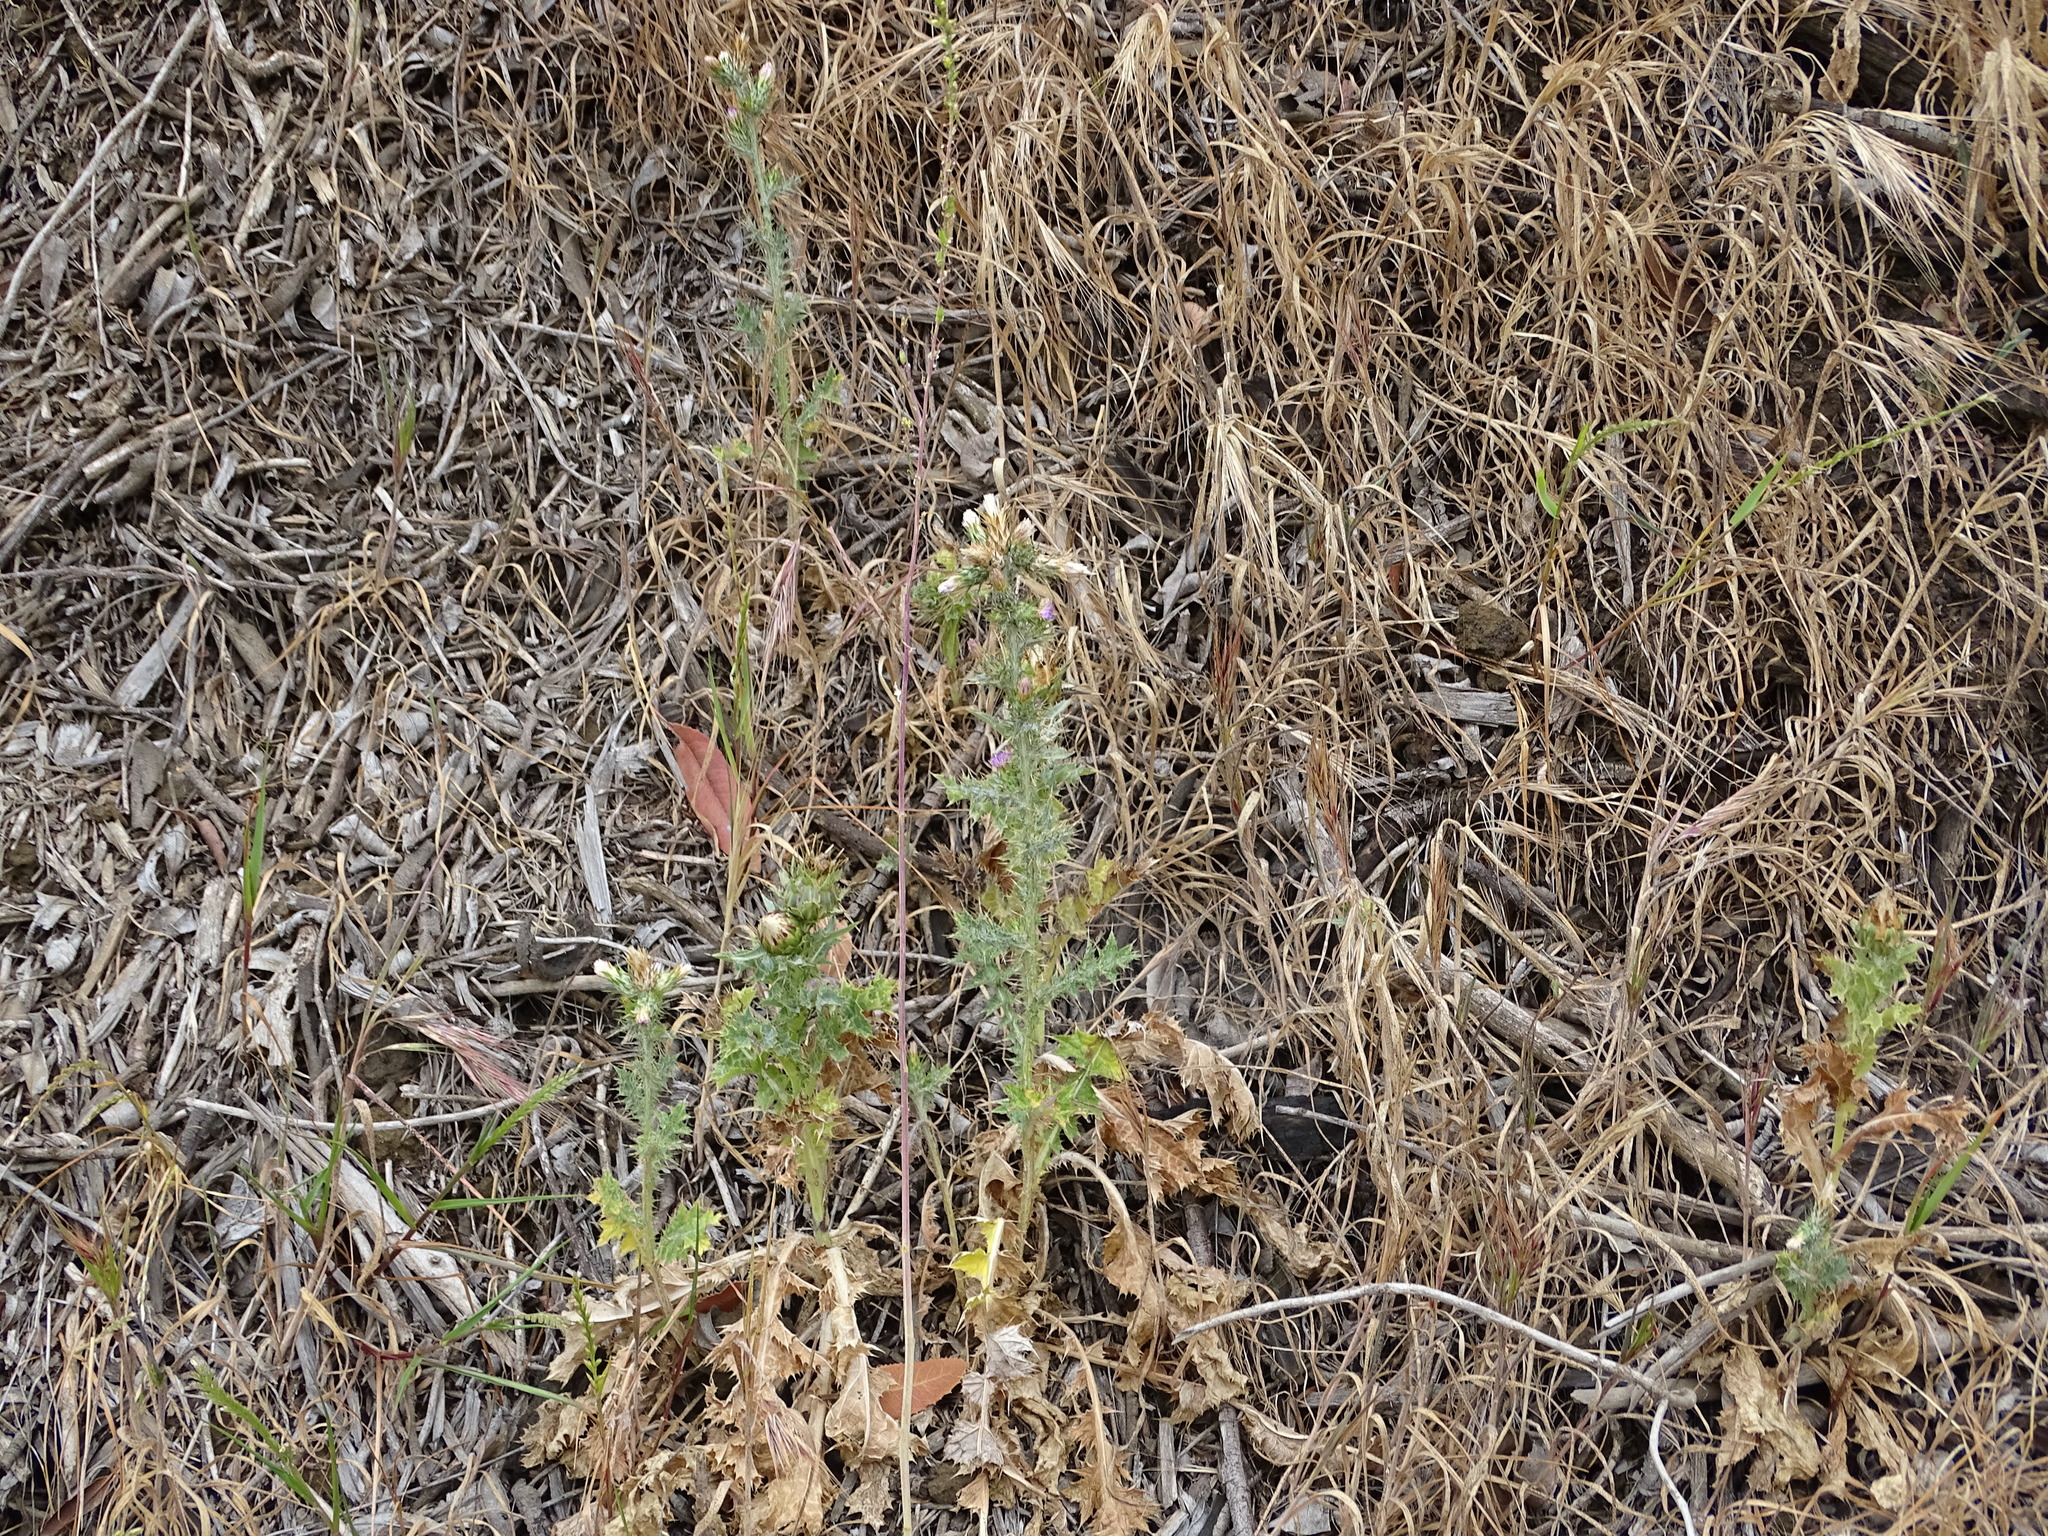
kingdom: Plantae
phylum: Tracheophyta
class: Magnoliopsida
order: Asterales
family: Asteraceae
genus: Carduus
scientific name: Carduus pycnocephalus
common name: Plymouth thistle
